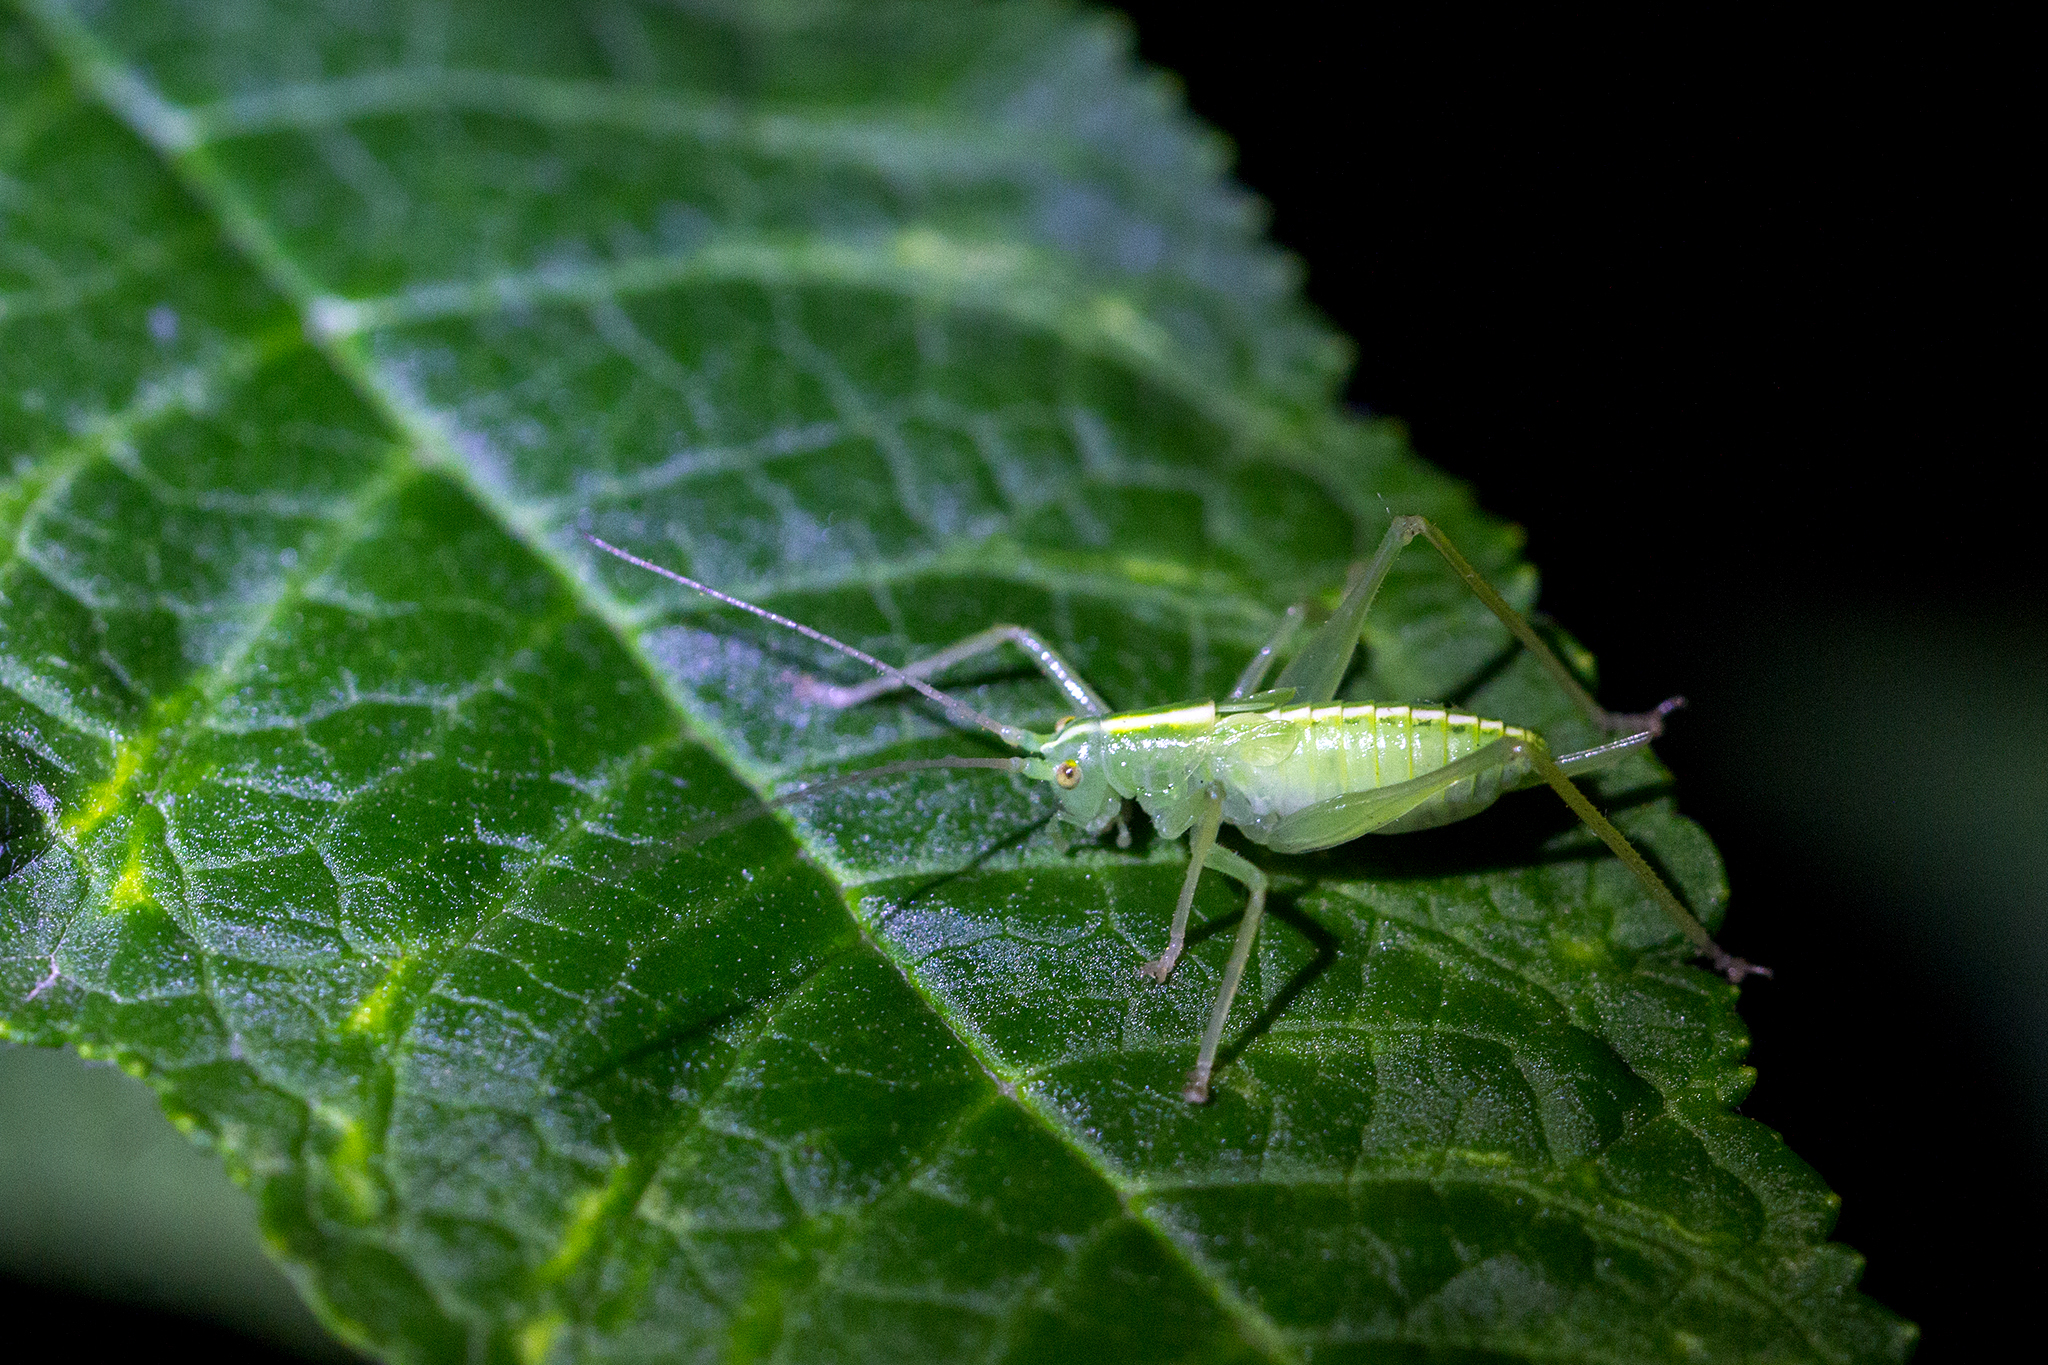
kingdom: Animalia
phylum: Arthropoda
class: Insecta
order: Orthoptera
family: Tettigoniidae
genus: Meconema
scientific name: Meconema thalassinum
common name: Oak bush-cricket
